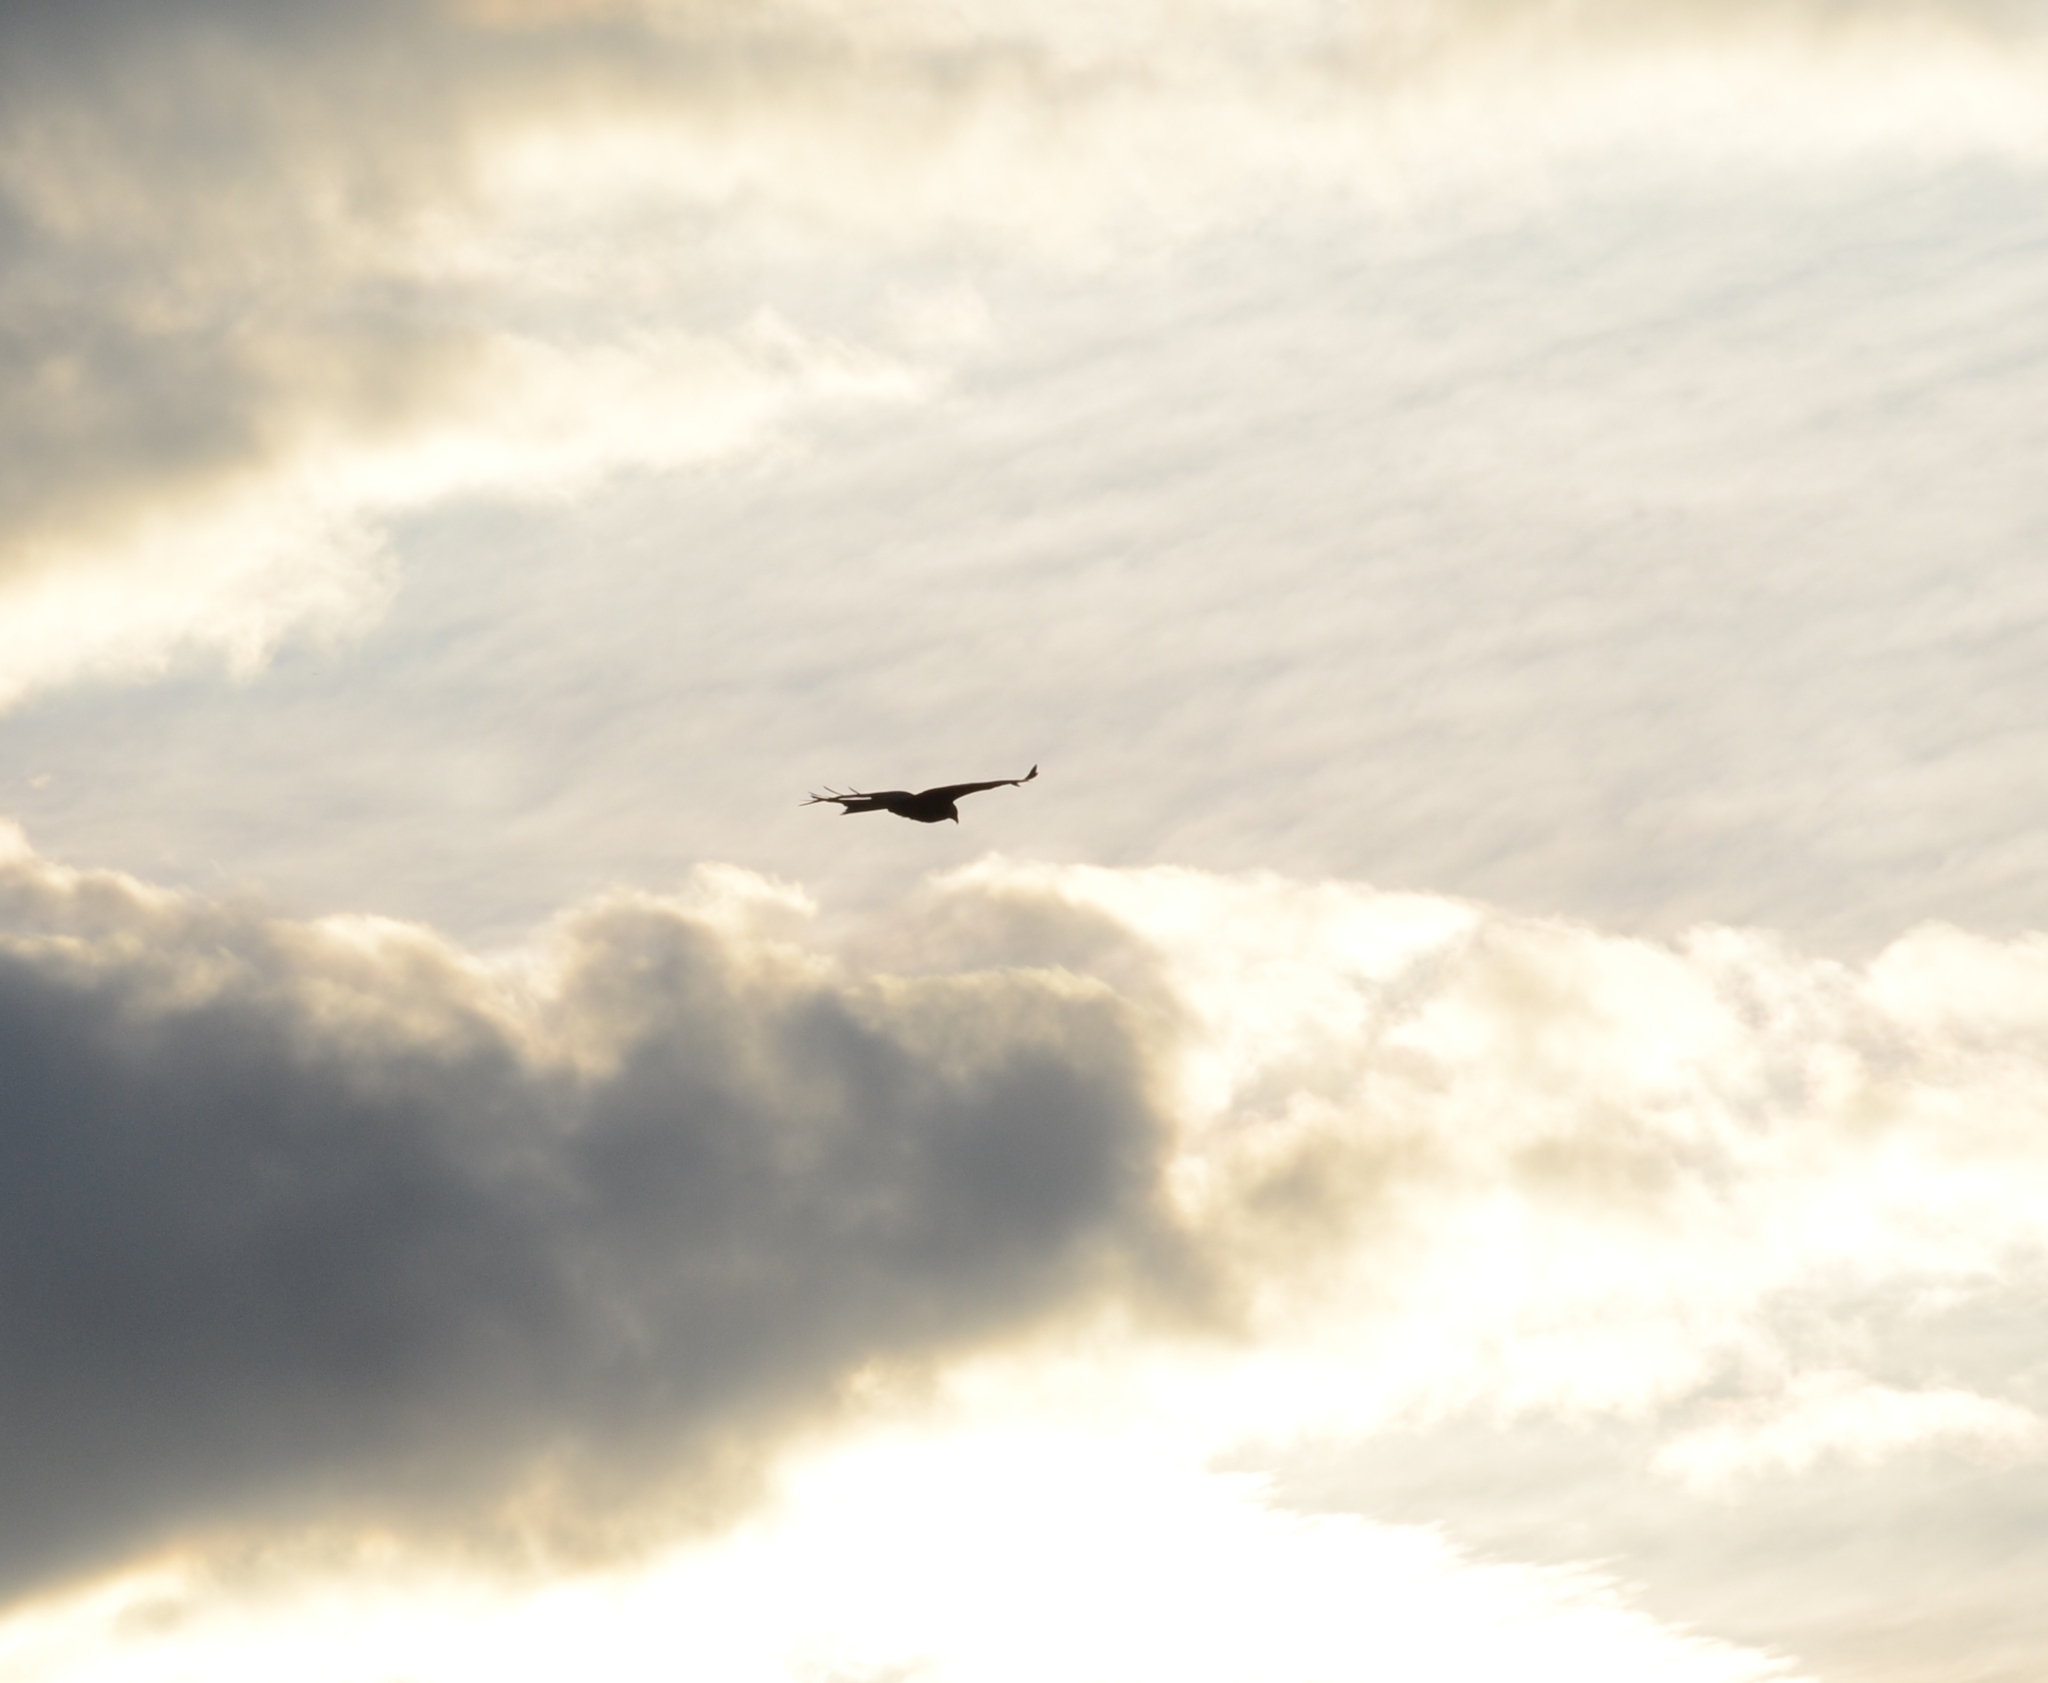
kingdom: Animalia
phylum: Chordata
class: Aves
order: Accipitriformes
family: Accipitridae
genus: Milvus
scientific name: Milvus milvus
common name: Red kite
